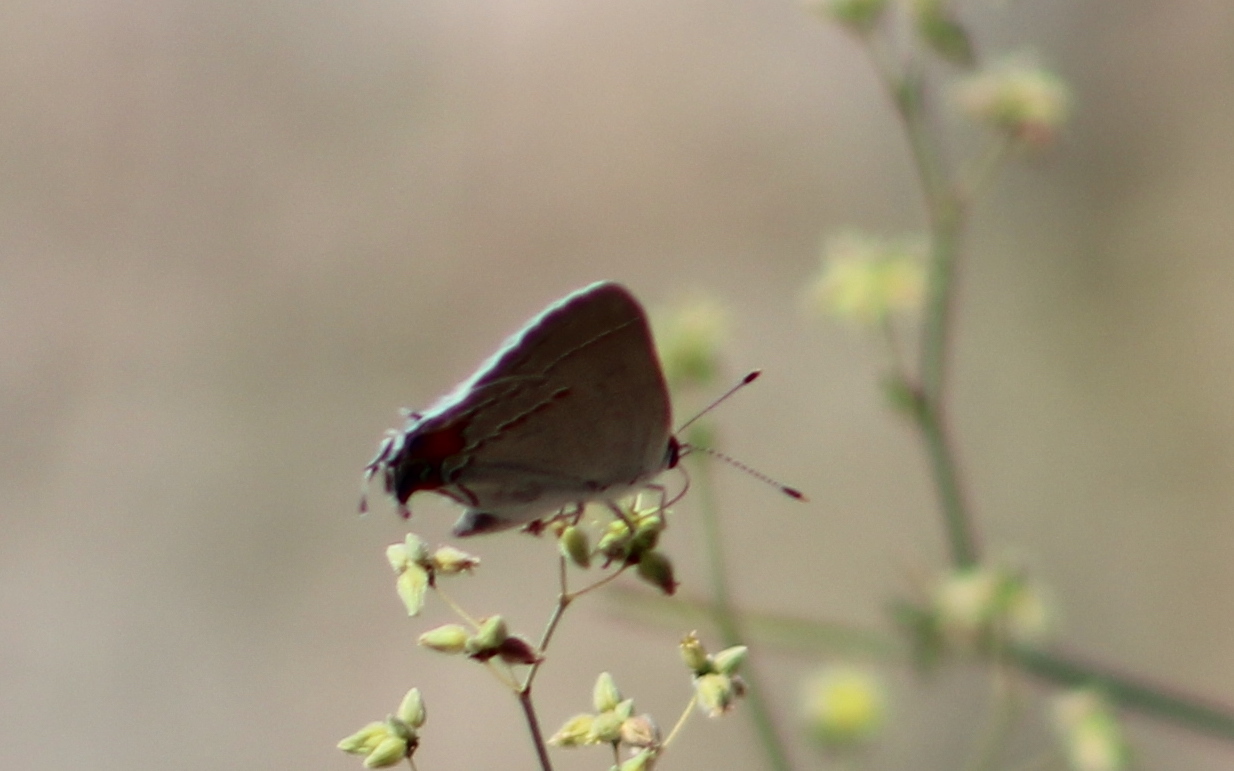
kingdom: Animalia
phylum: Arthropoda
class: Insecta
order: Lepidoptera
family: Lycaenidae
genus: Strymon
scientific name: Strymon melinus
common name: Gray hairstreak
